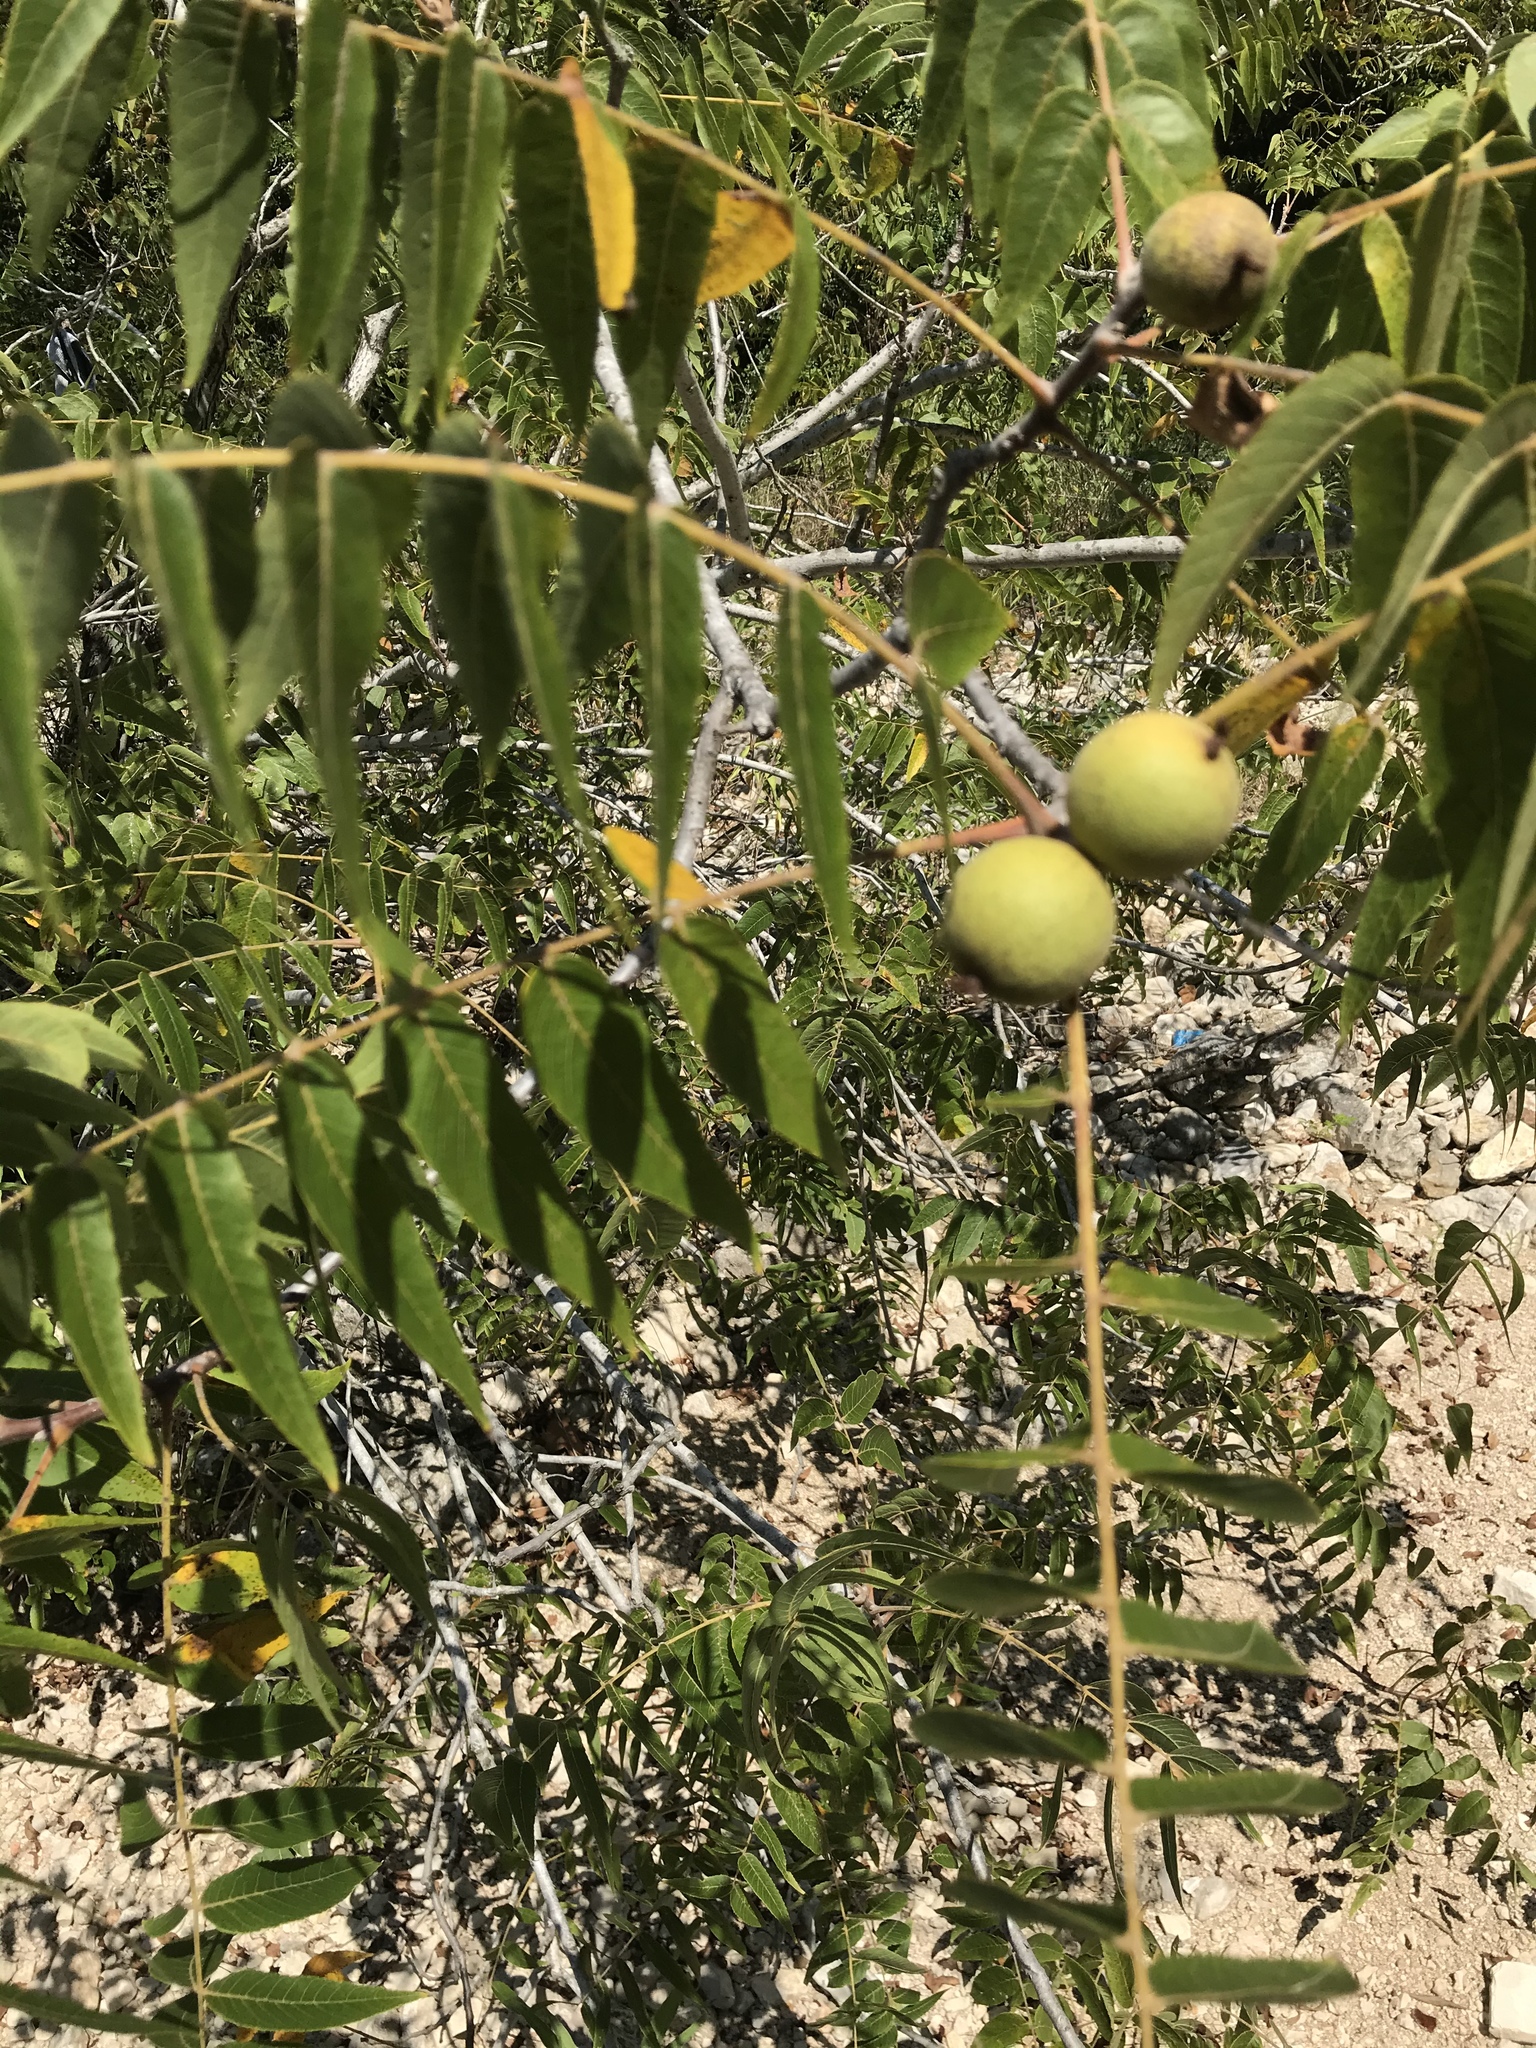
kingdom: Plantae
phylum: Tracheophyta
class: Magnoliopsida
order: Fagales
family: Juglandaceae
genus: Juglans
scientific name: Juglans microcarpa
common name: Texas walnut
